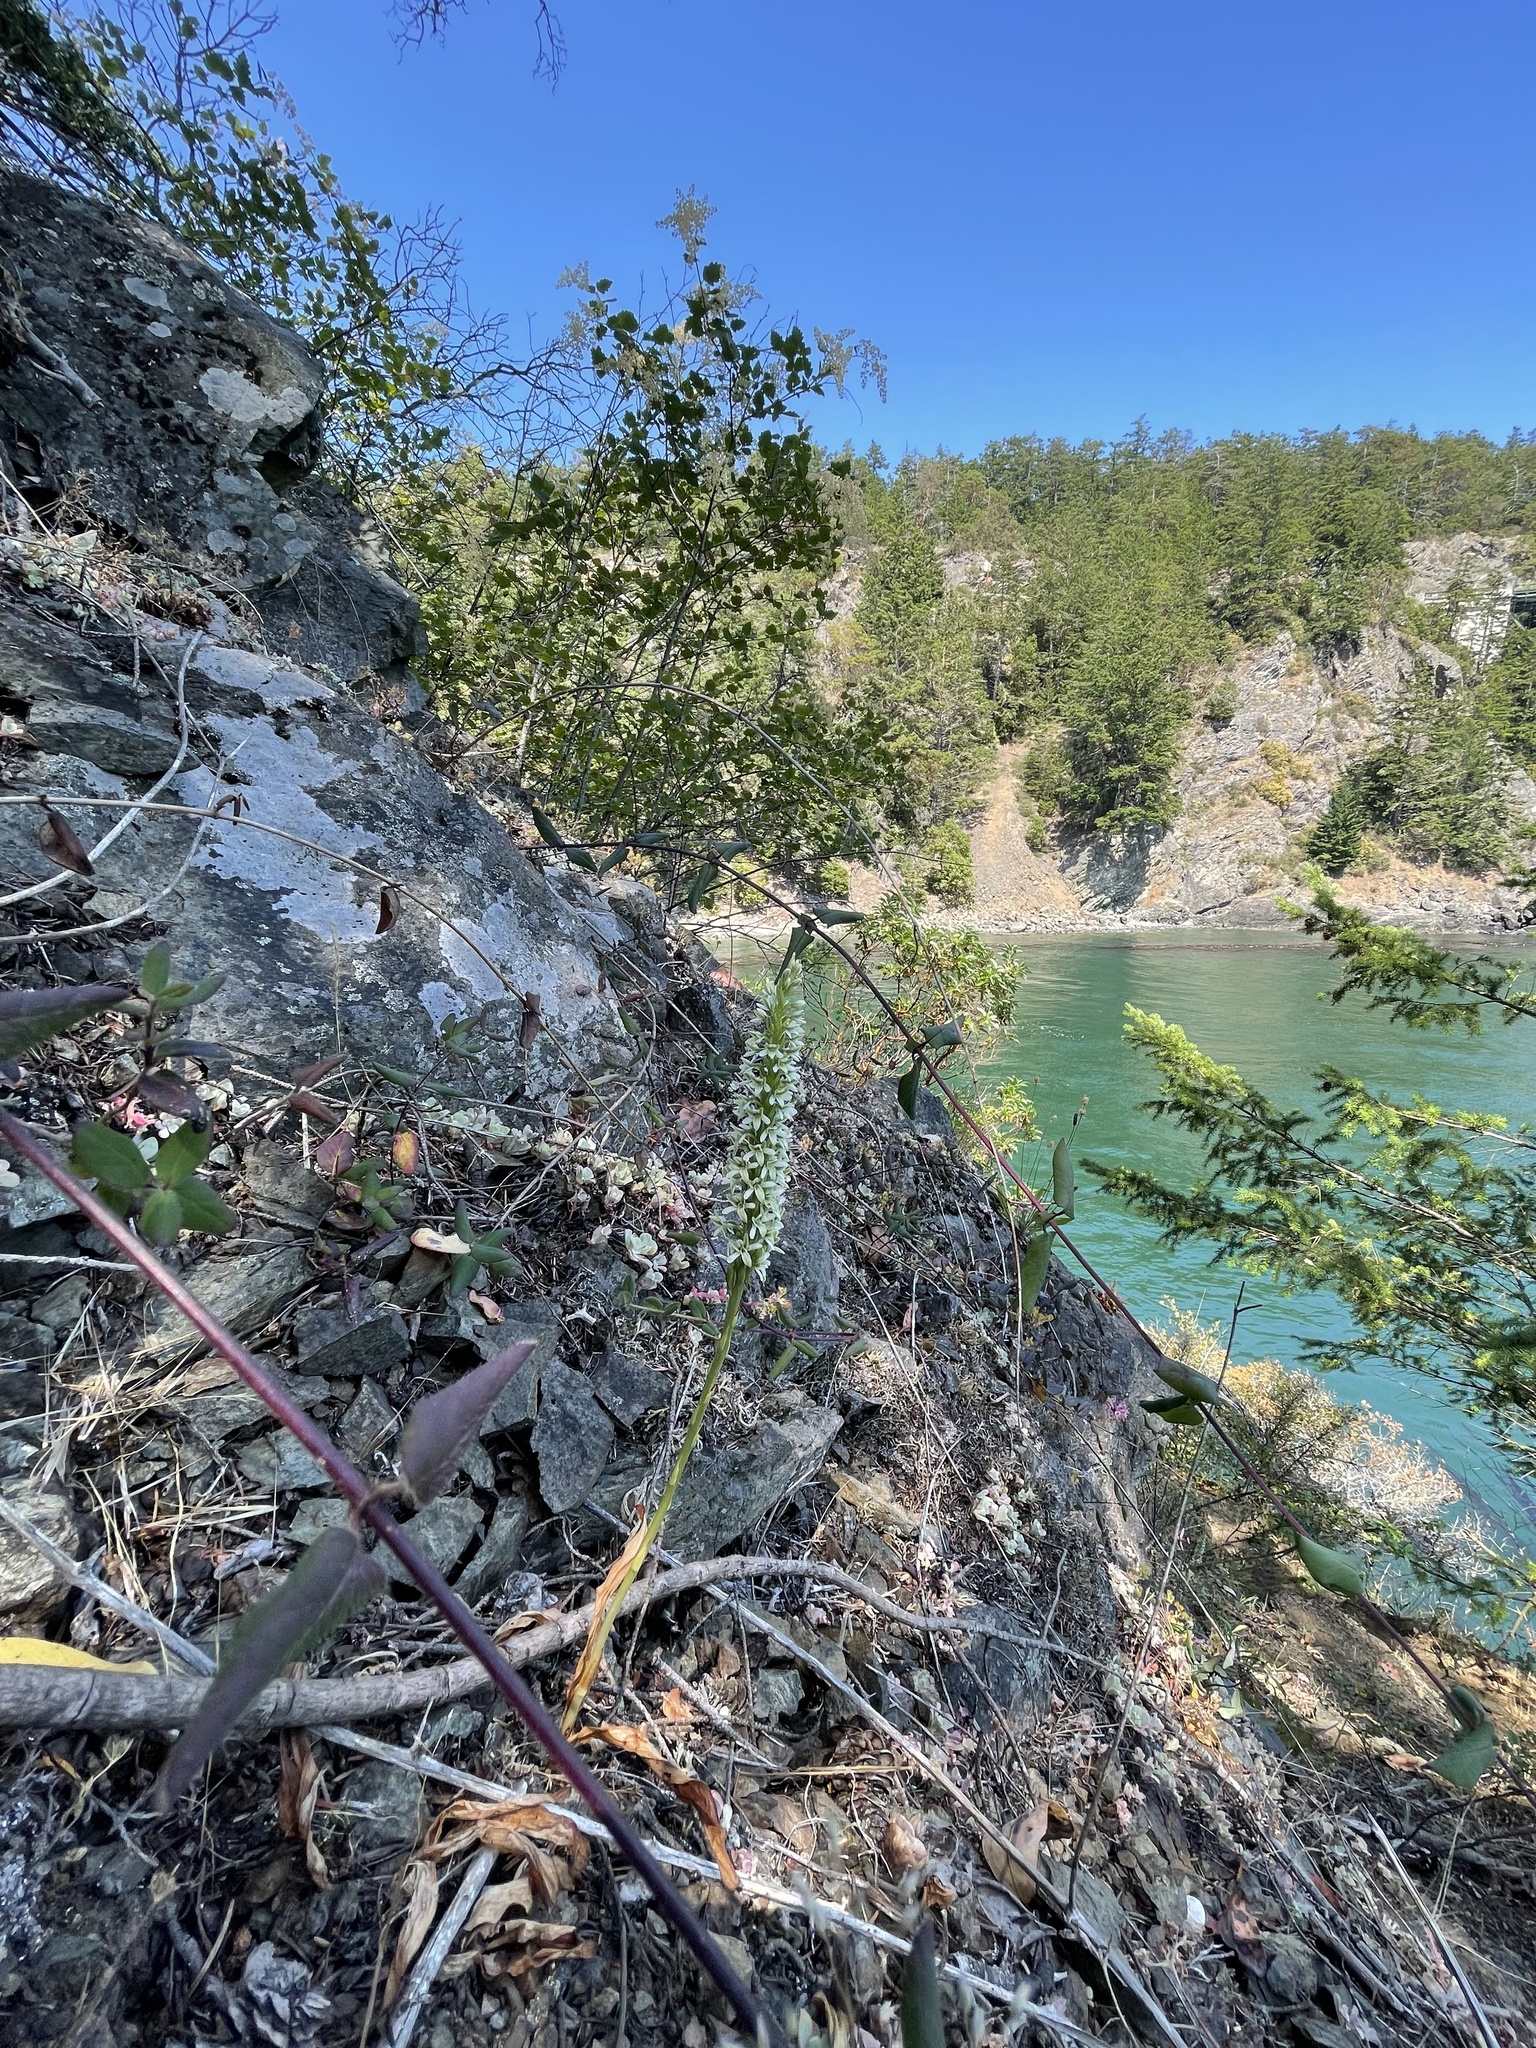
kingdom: Plantae
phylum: Tracheophyta
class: Liliopsida
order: Asparagales
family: Orchidaceae
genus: Platanthera
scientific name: Platanthera elegans
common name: Coast piperia
